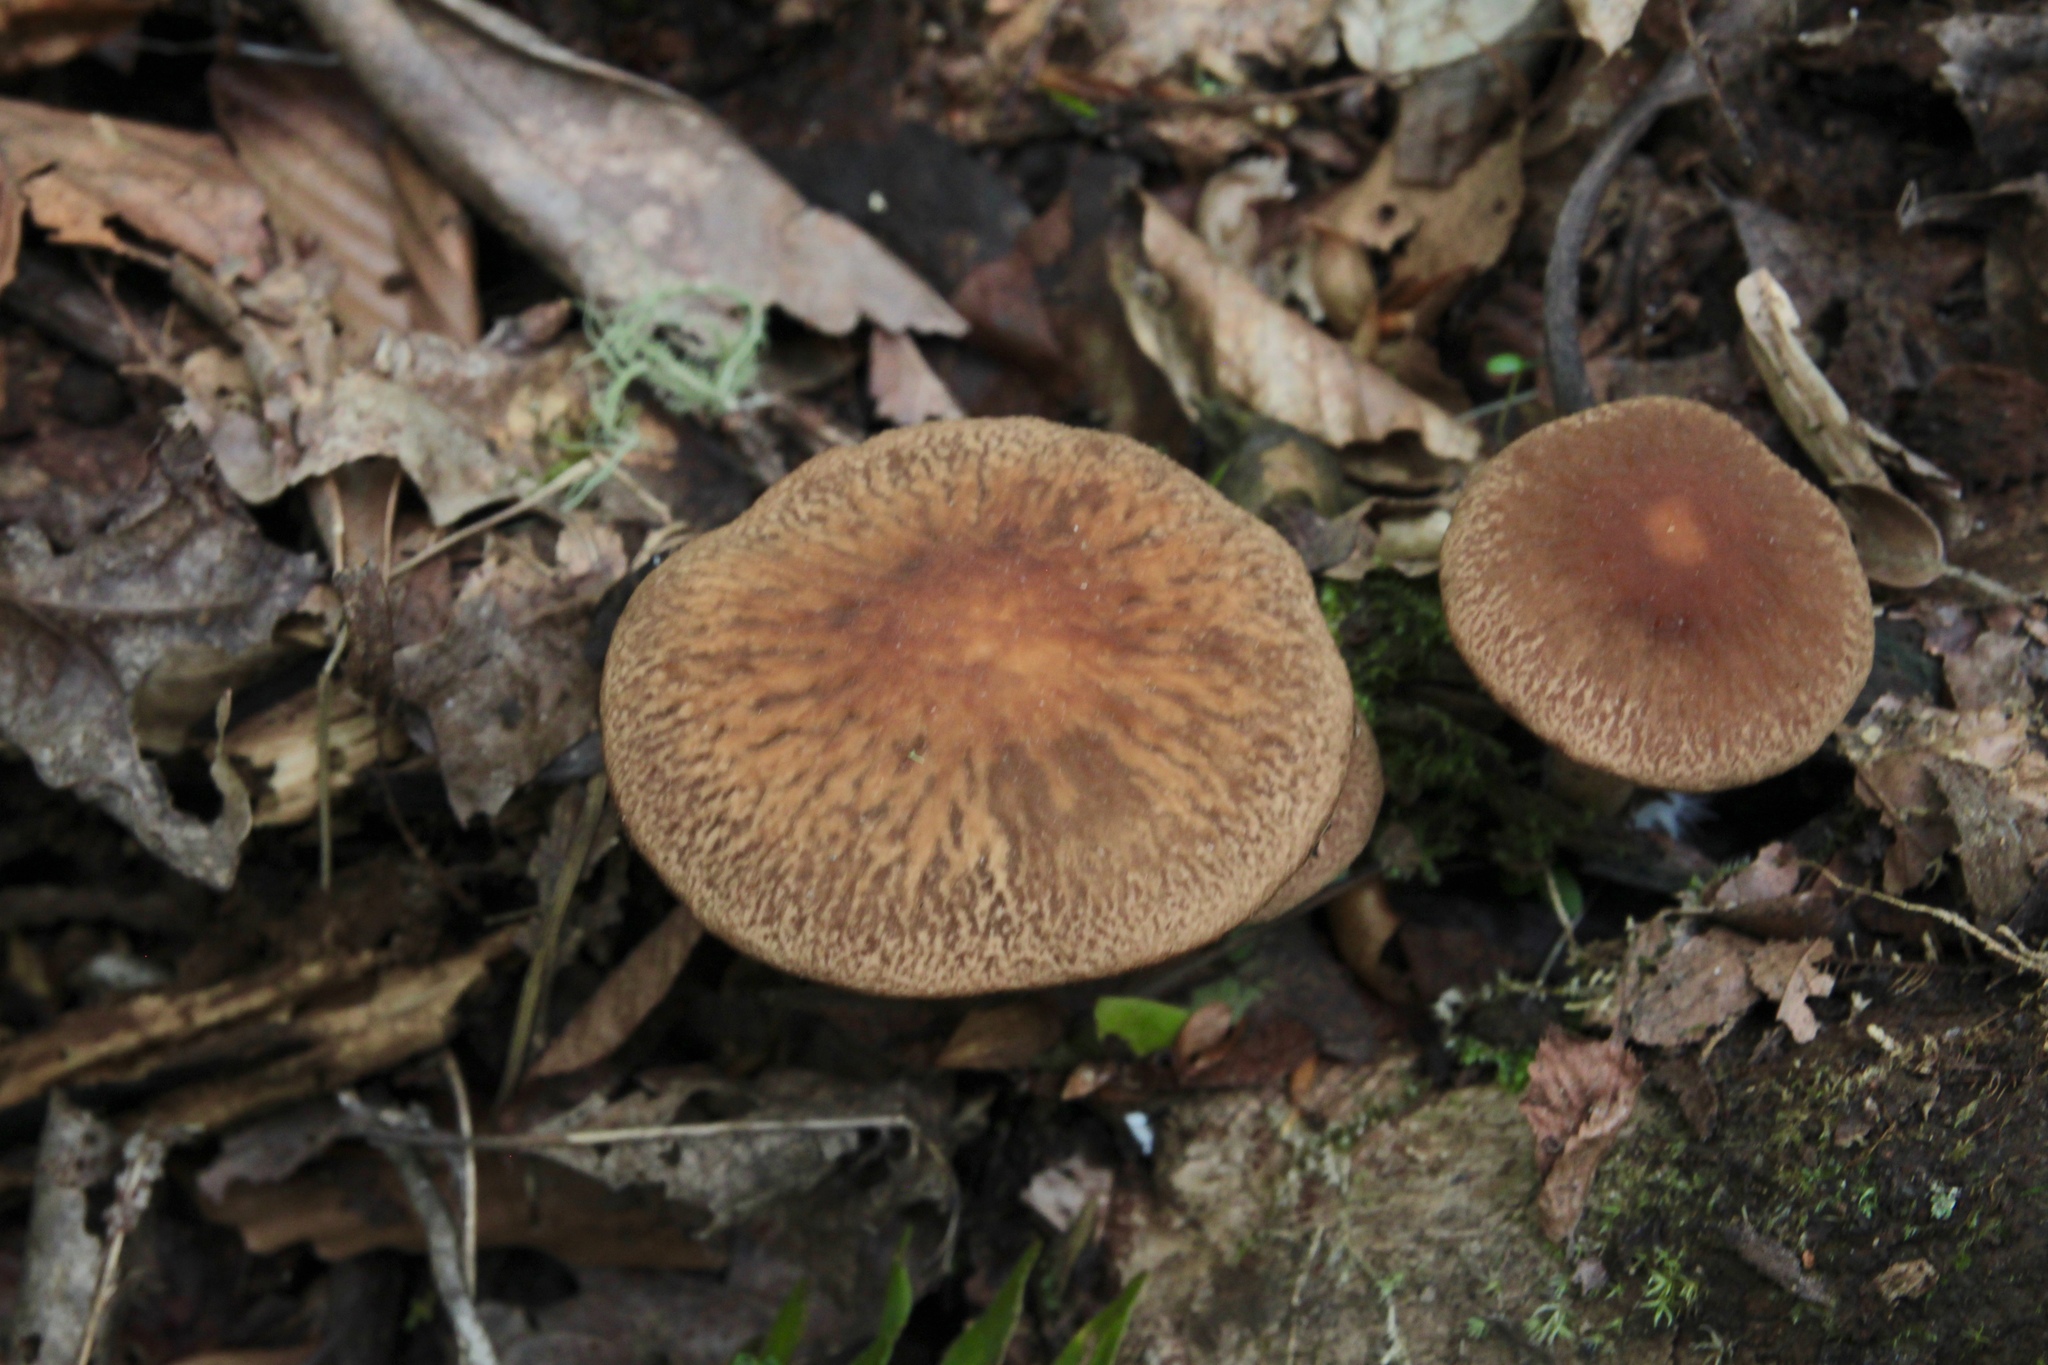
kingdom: Fungi
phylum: Basidiomycota
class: Agaricomycetes
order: Agaricales
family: Psathyrellaceae
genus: Typhrasa
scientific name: Typhrasa gossypina
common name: Wrinkled psathyrella
